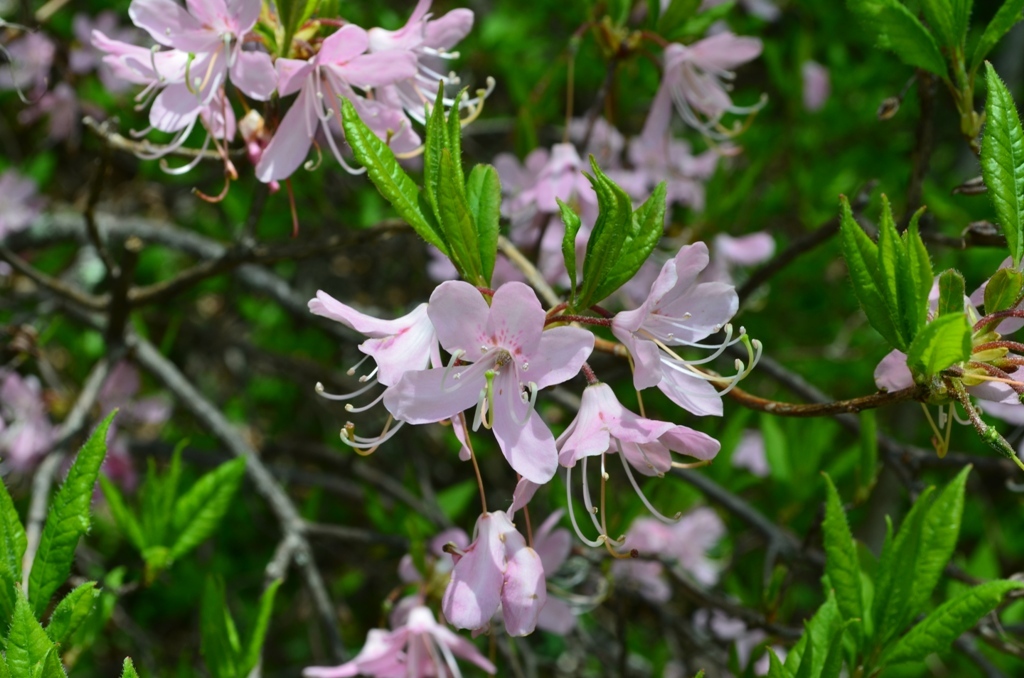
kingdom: Plantae
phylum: Tracheophyta
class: Magnoliopsida
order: Ericales
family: Ericaceae
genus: Rhododendron
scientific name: Rhododendron vaseyi
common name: Pink-shell azalea
